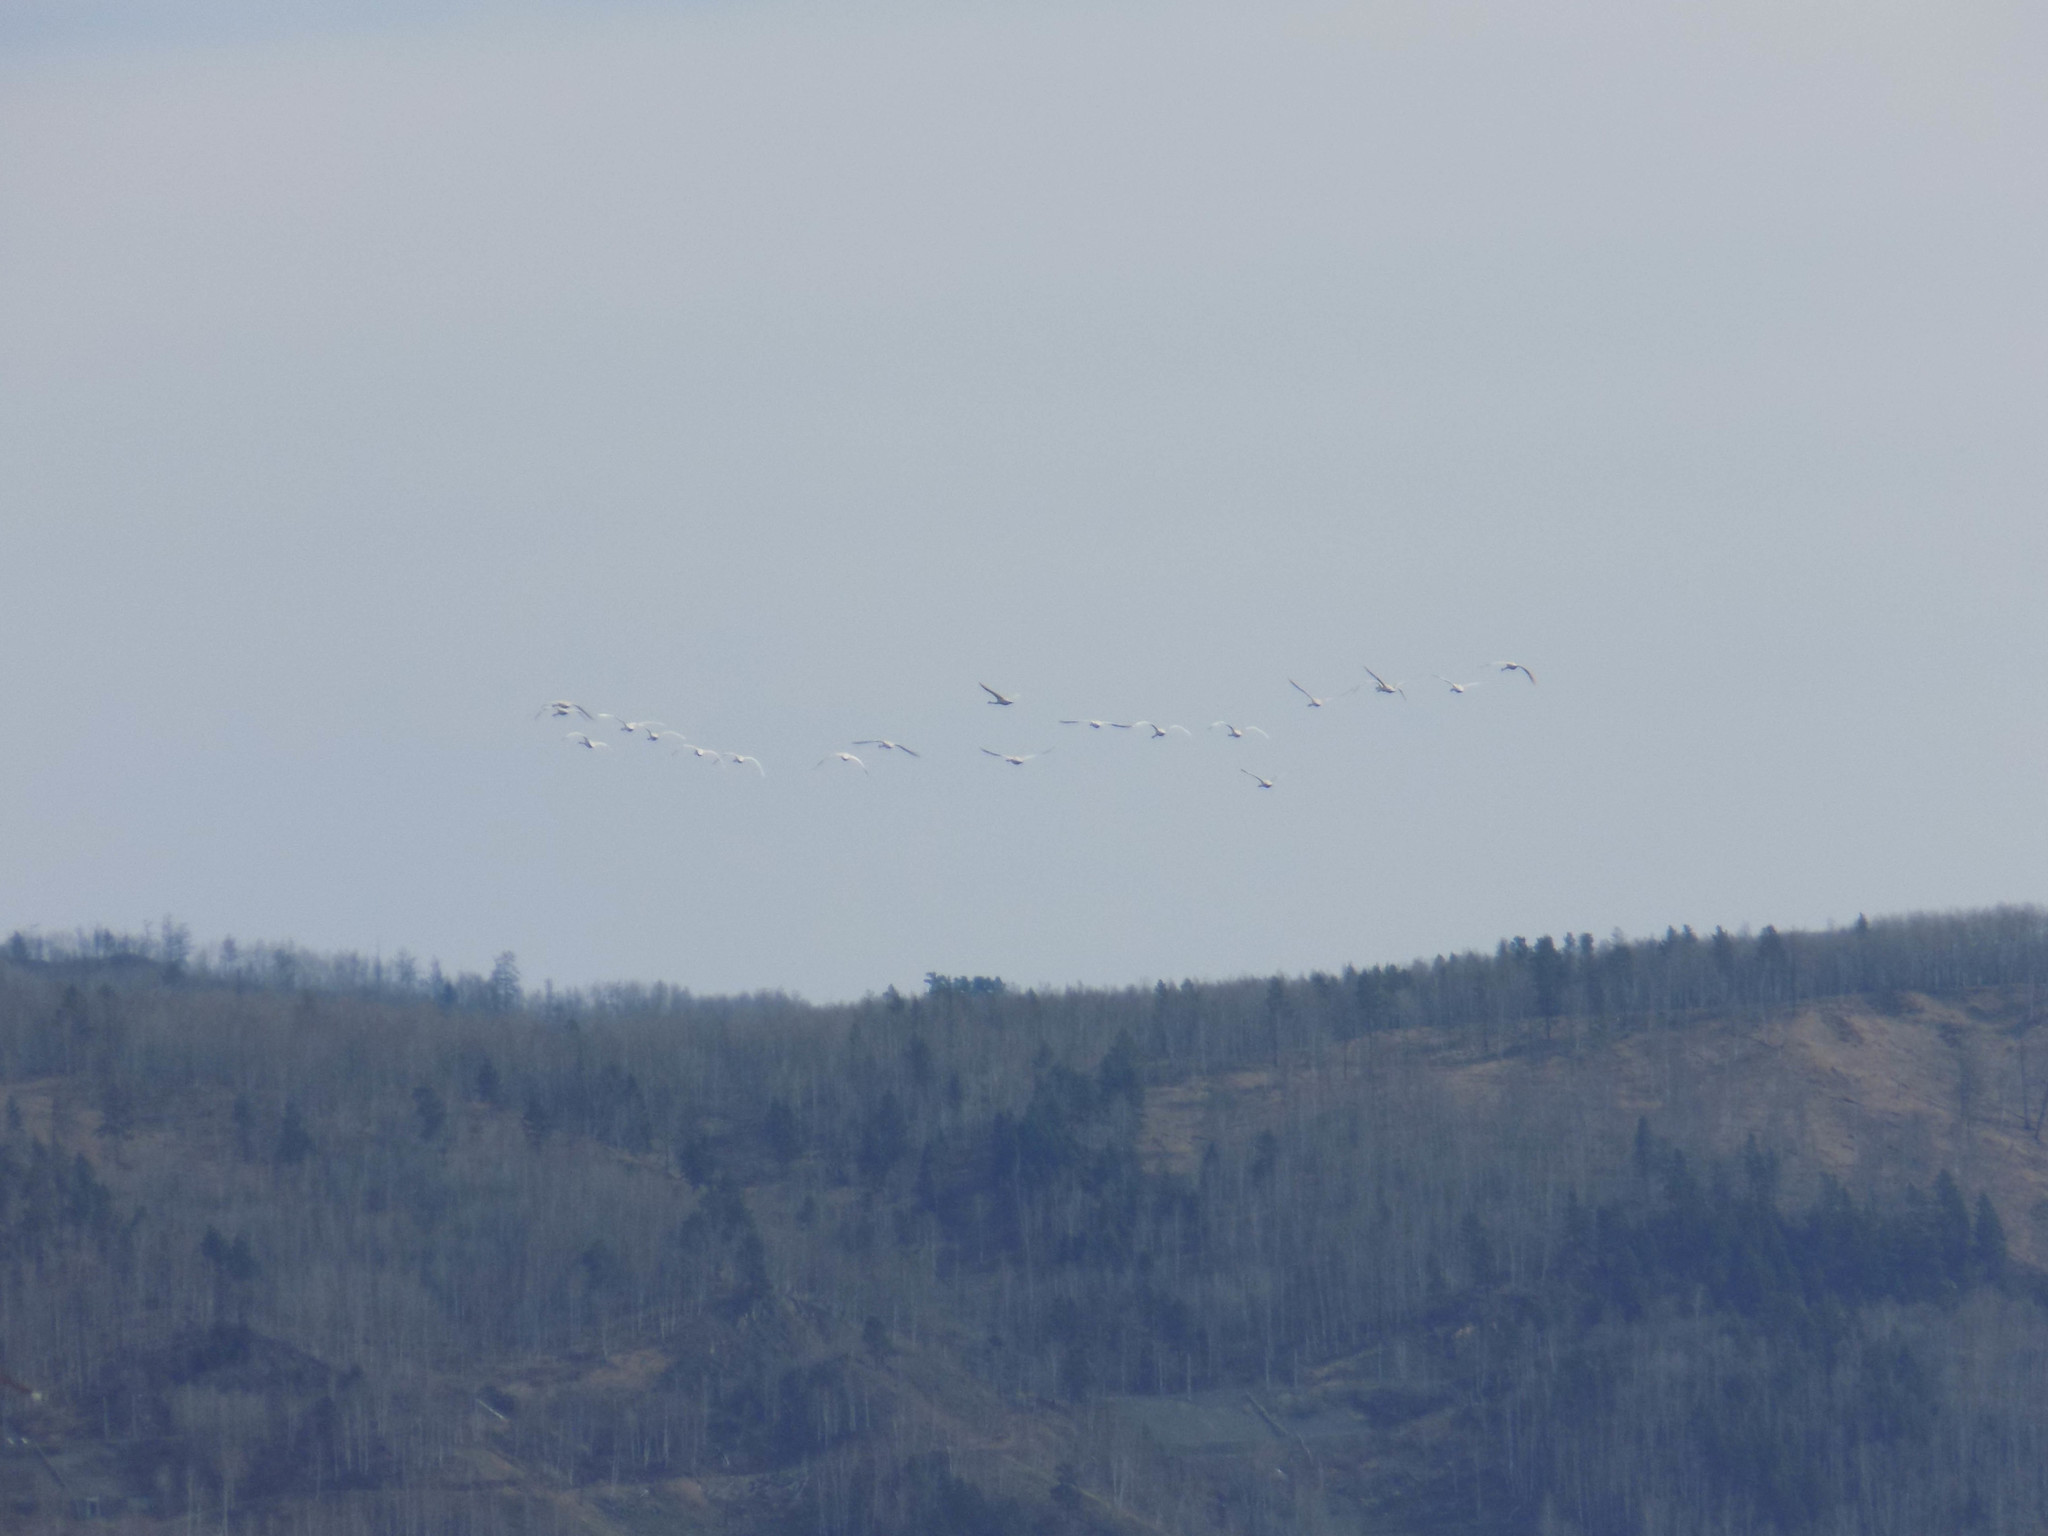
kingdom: Animalia
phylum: Chordata
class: Aves
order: Anseriformes
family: Anatidae
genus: Cygnus
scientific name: Cygnus columbianus
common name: Tundra swan
